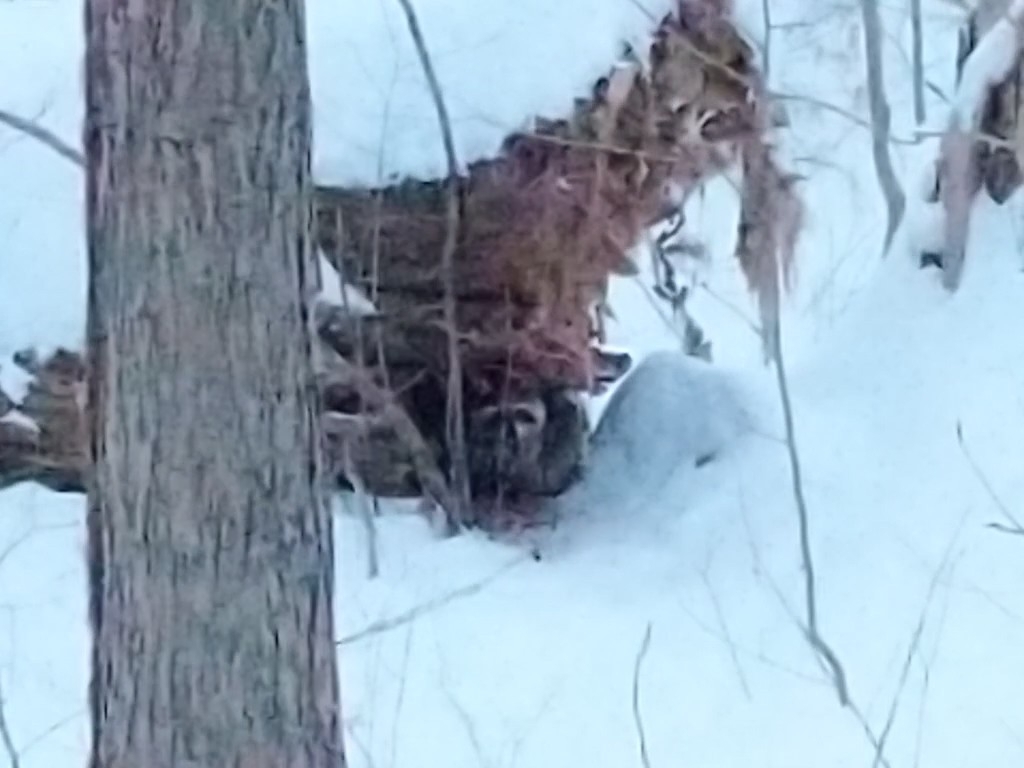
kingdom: Animalia
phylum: Chordata
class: Mammalia
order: Carnivora
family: Procyonidae
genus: Procyon
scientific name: Procyon lotor
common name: Raccoon
